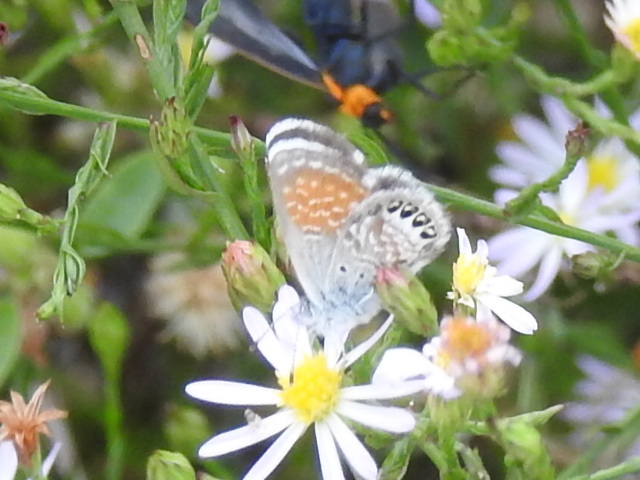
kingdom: Animalia
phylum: Arthropoda
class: Insecta
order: Lepidoptera
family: Lycaenidae
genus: Brephidium
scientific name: Brephidium exilis
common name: Pygmy blue
